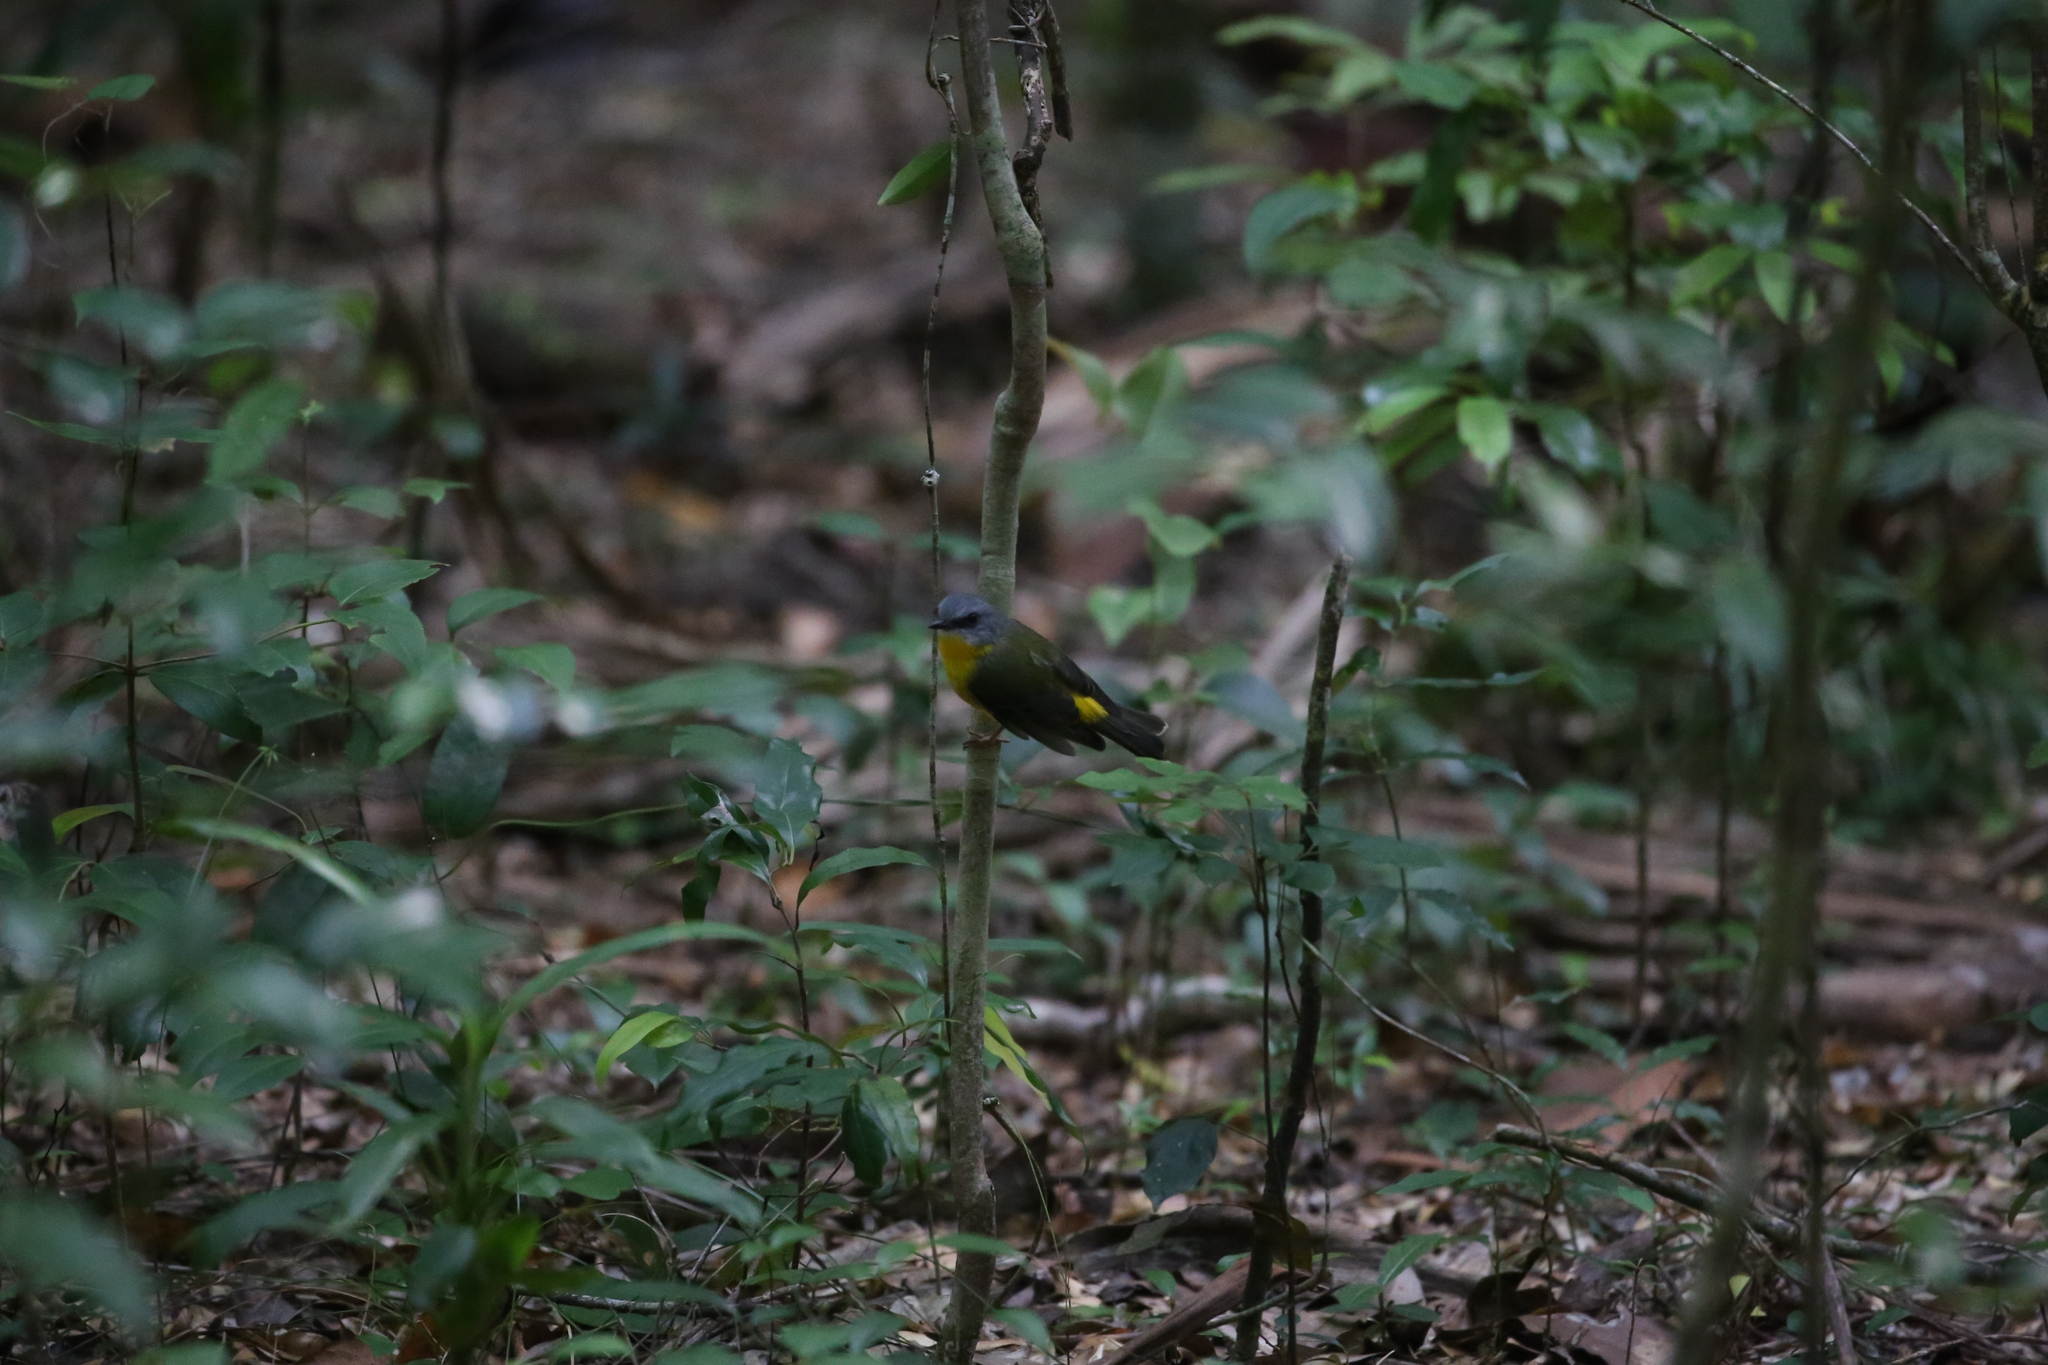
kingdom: Animalia
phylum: Chordata
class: Aves
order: Passeriformes
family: Petroicidae
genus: Eopsaltria
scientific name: Eopsaltria australis
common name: Eastern yellow robin
